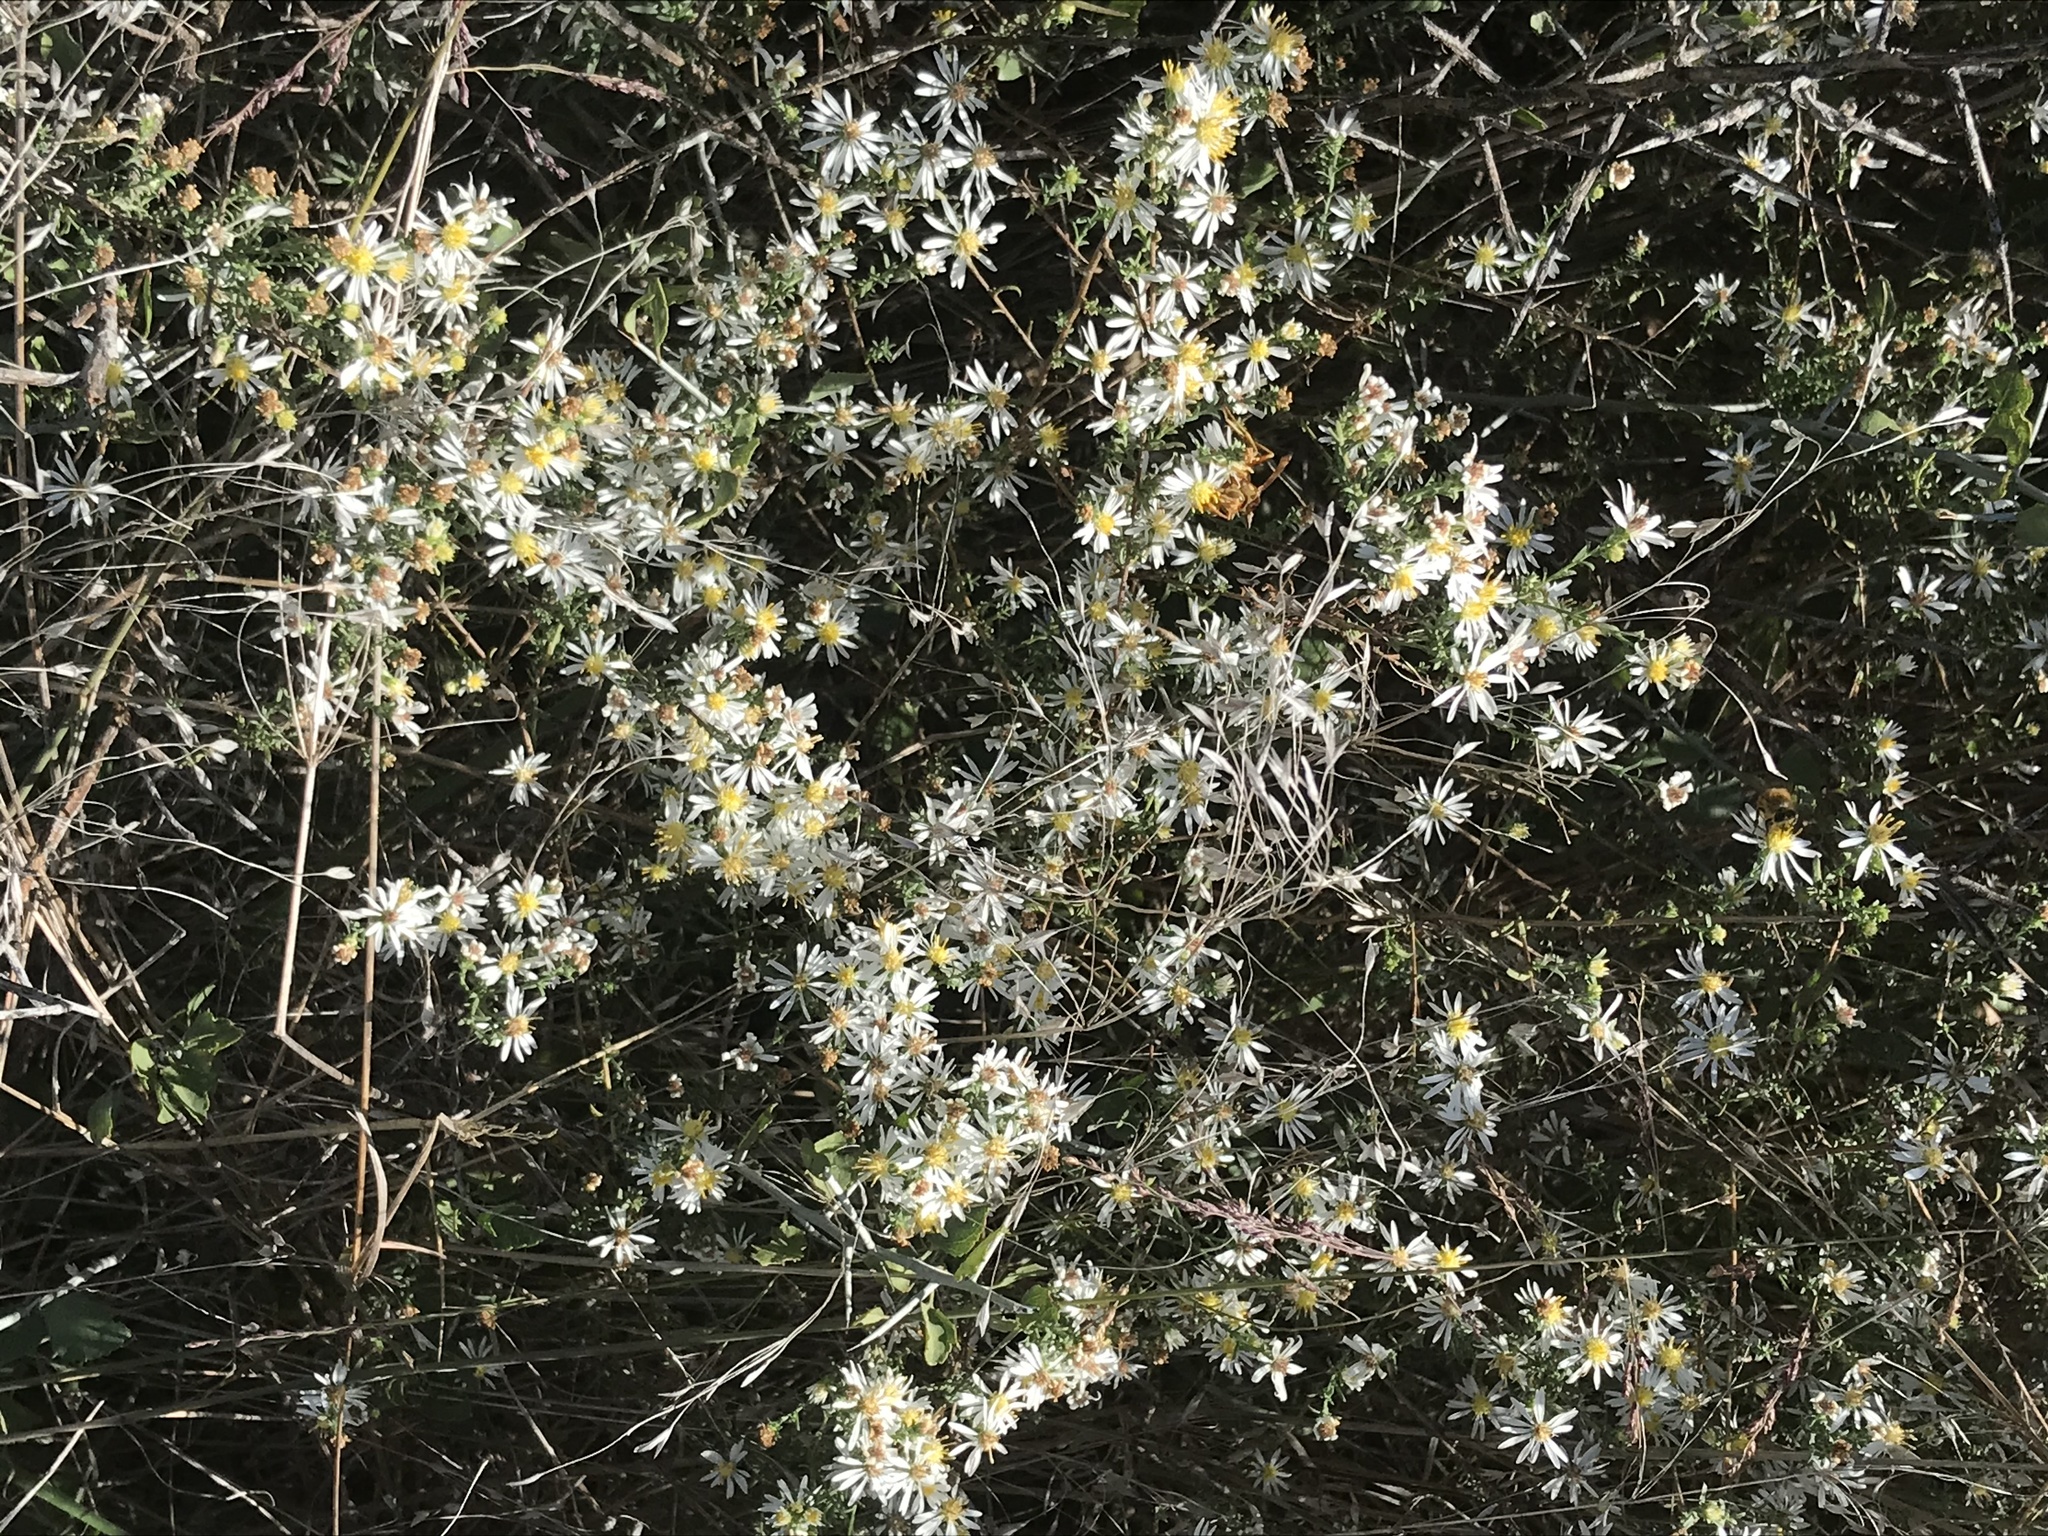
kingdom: Plantae
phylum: Tracheophyta
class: Magnoliopsida
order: Asterales
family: Asteraceae
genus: Symphyotrichum
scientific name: Symphyotrichum ericoides
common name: Heath aster
